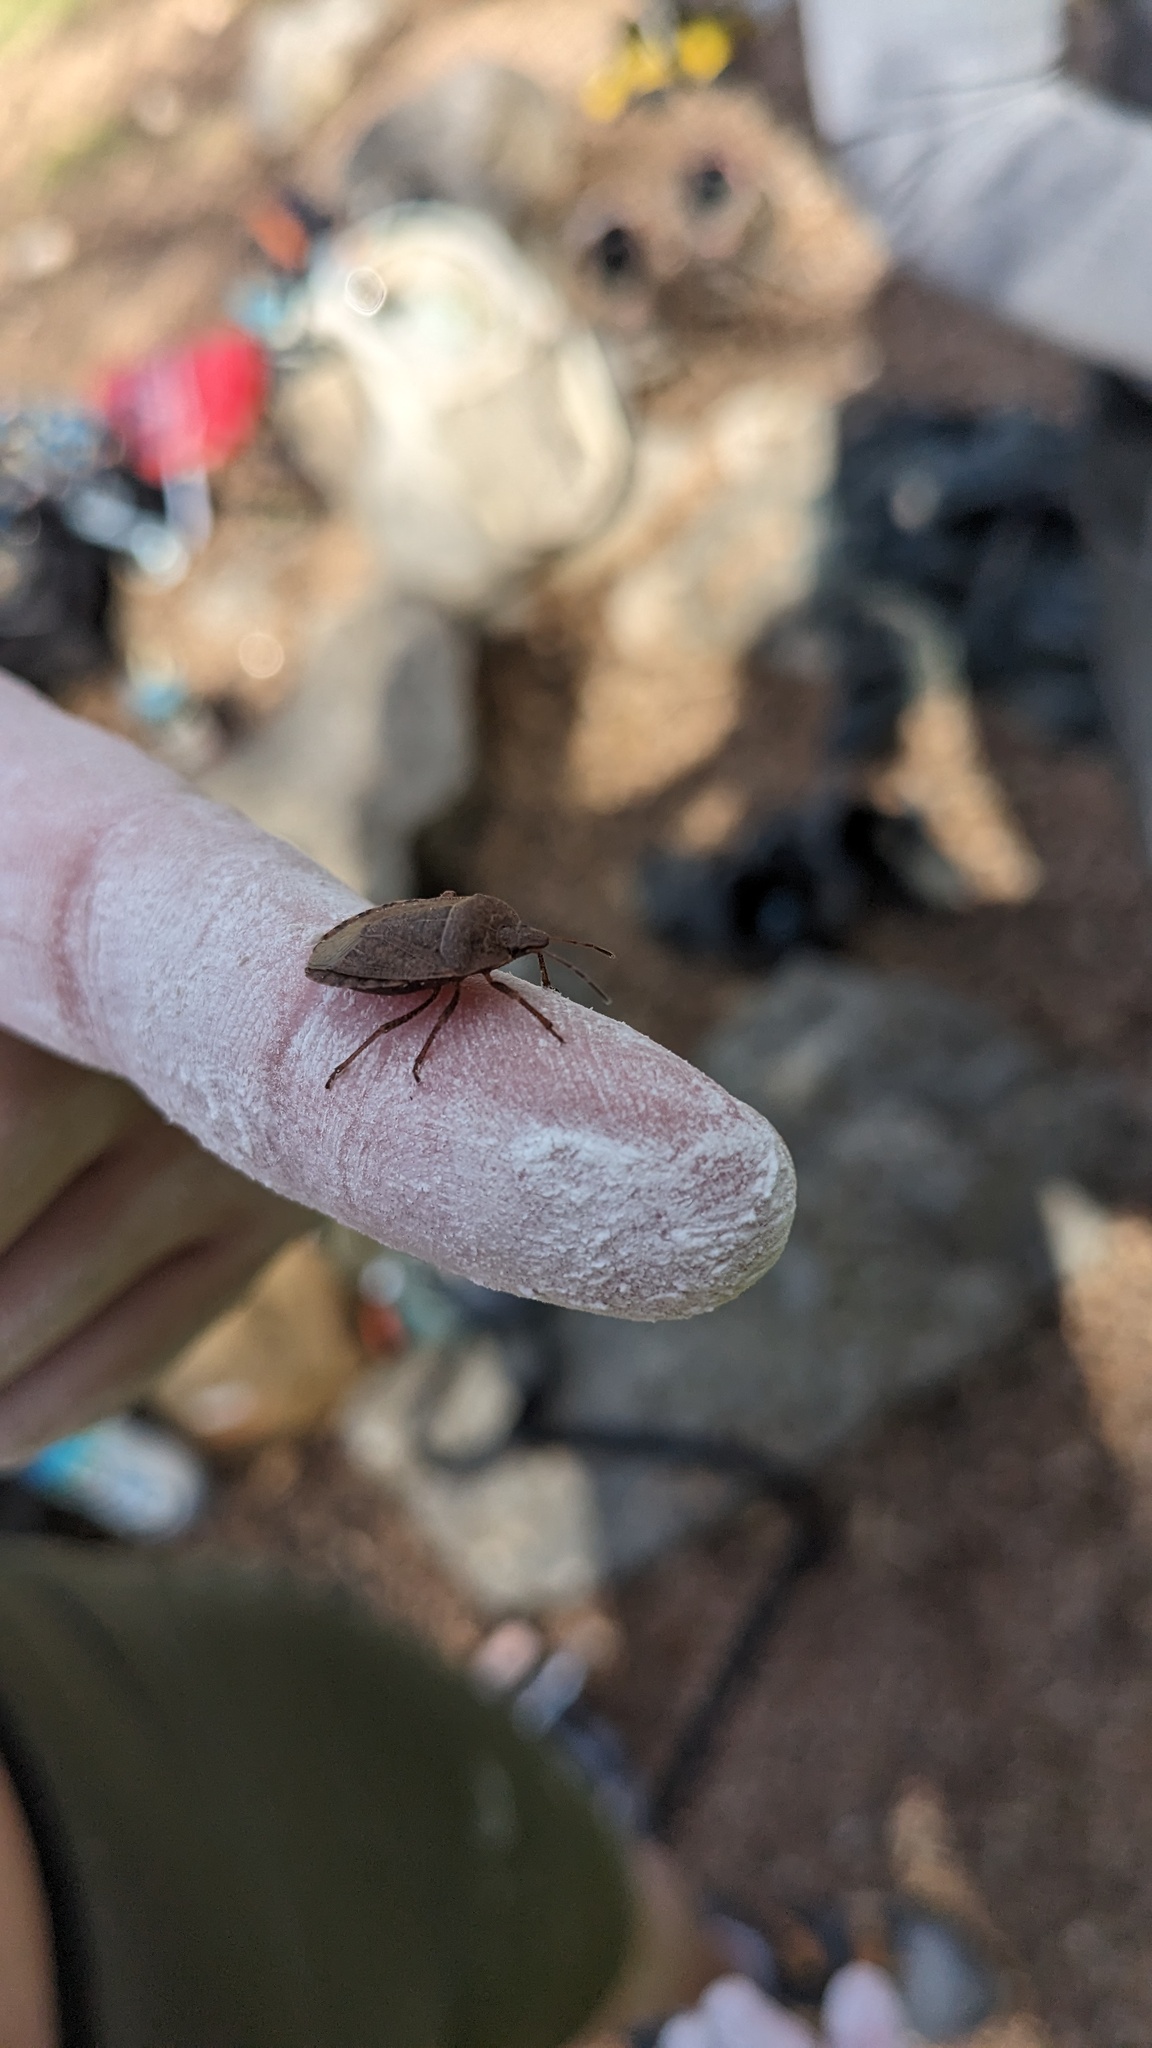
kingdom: Animalia
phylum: Arthropoda
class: Insecta
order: Hemiptera
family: Pentatomidae
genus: Menecles
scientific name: Menecles insertus
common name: Elf shoe stink bug
